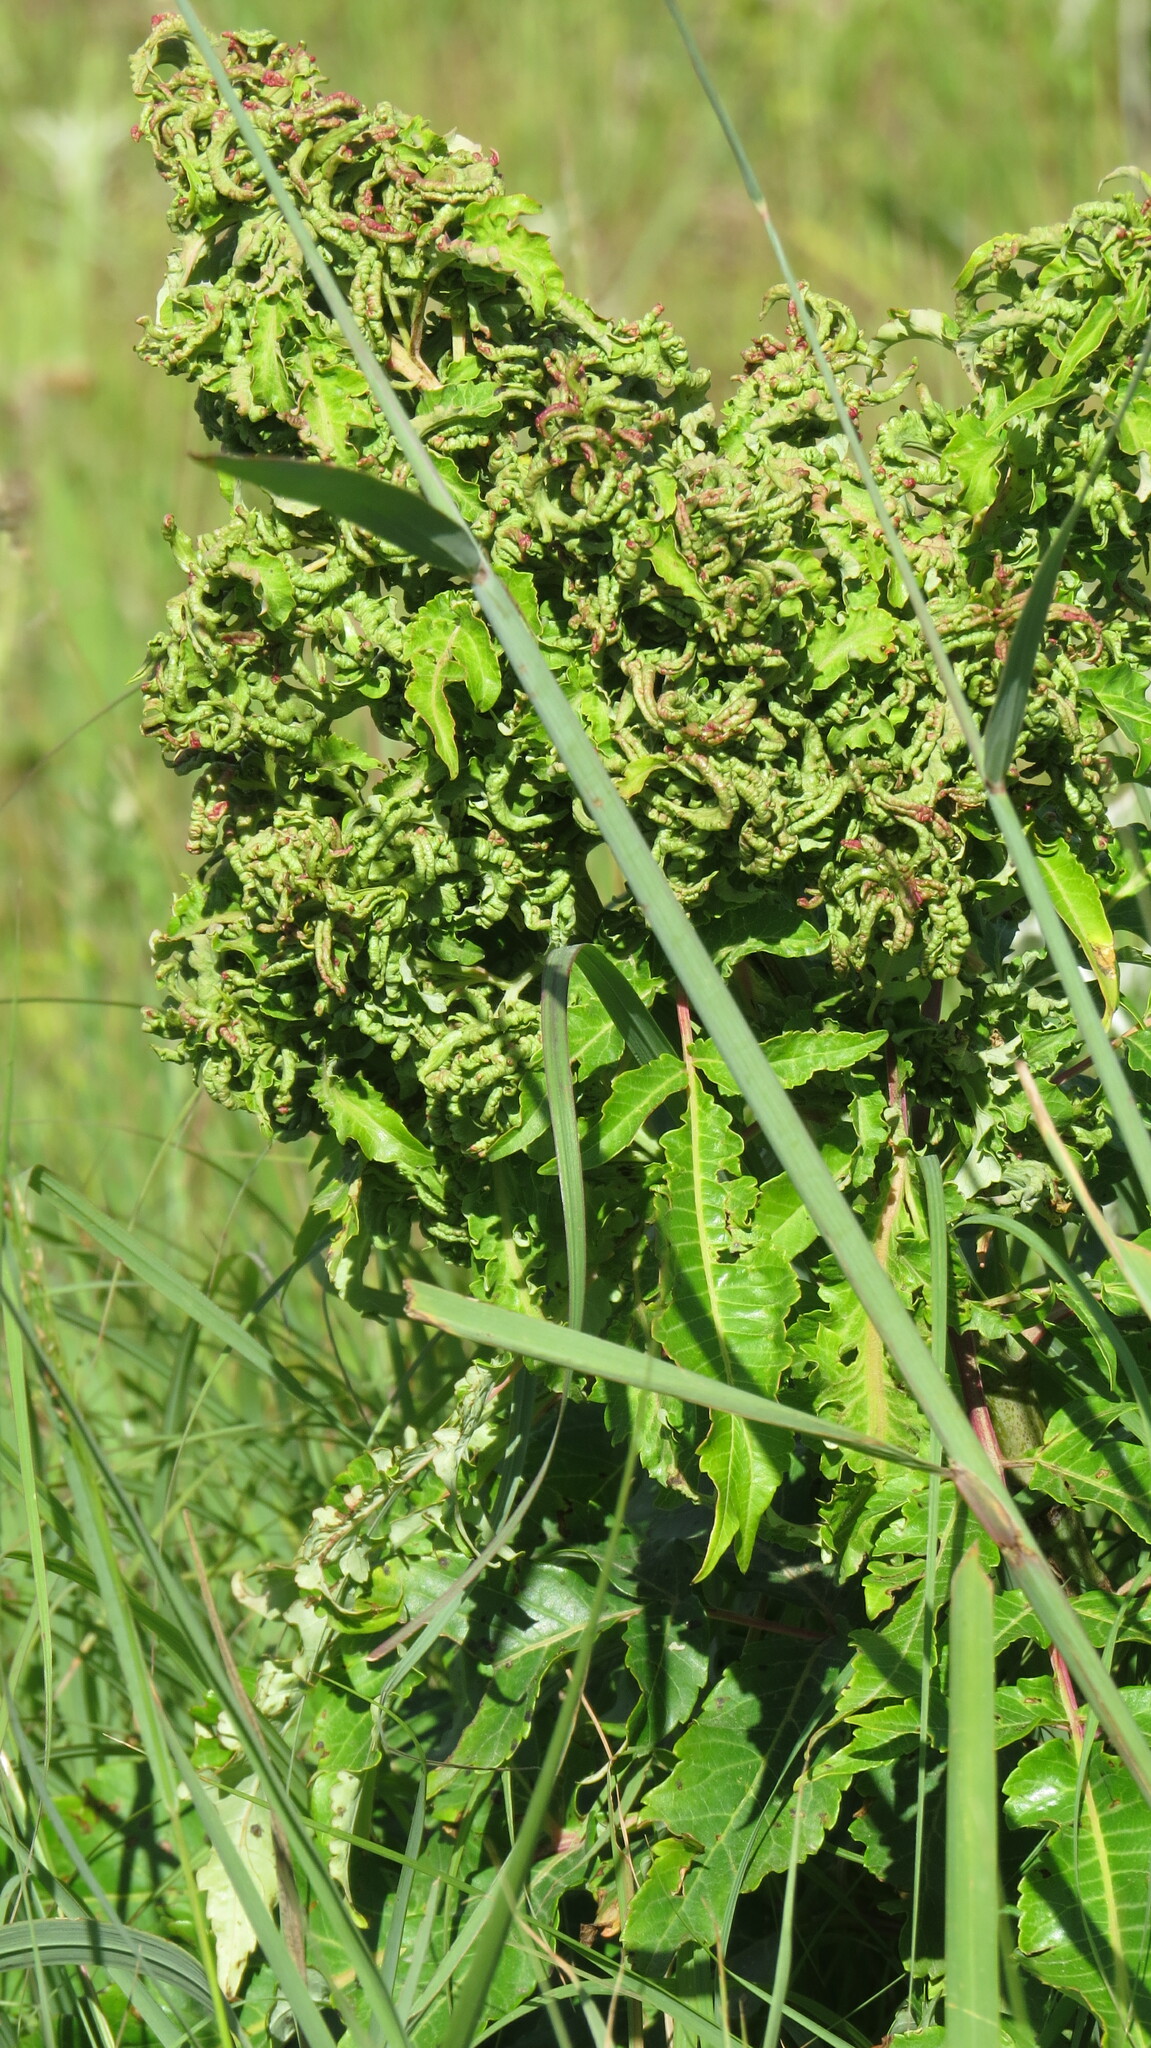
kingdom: Animalia
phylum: Arthropoda
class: Arachnida
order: Trombidiformes
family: Eriophyidae
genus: Eriophyes
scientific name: Eriophyes
